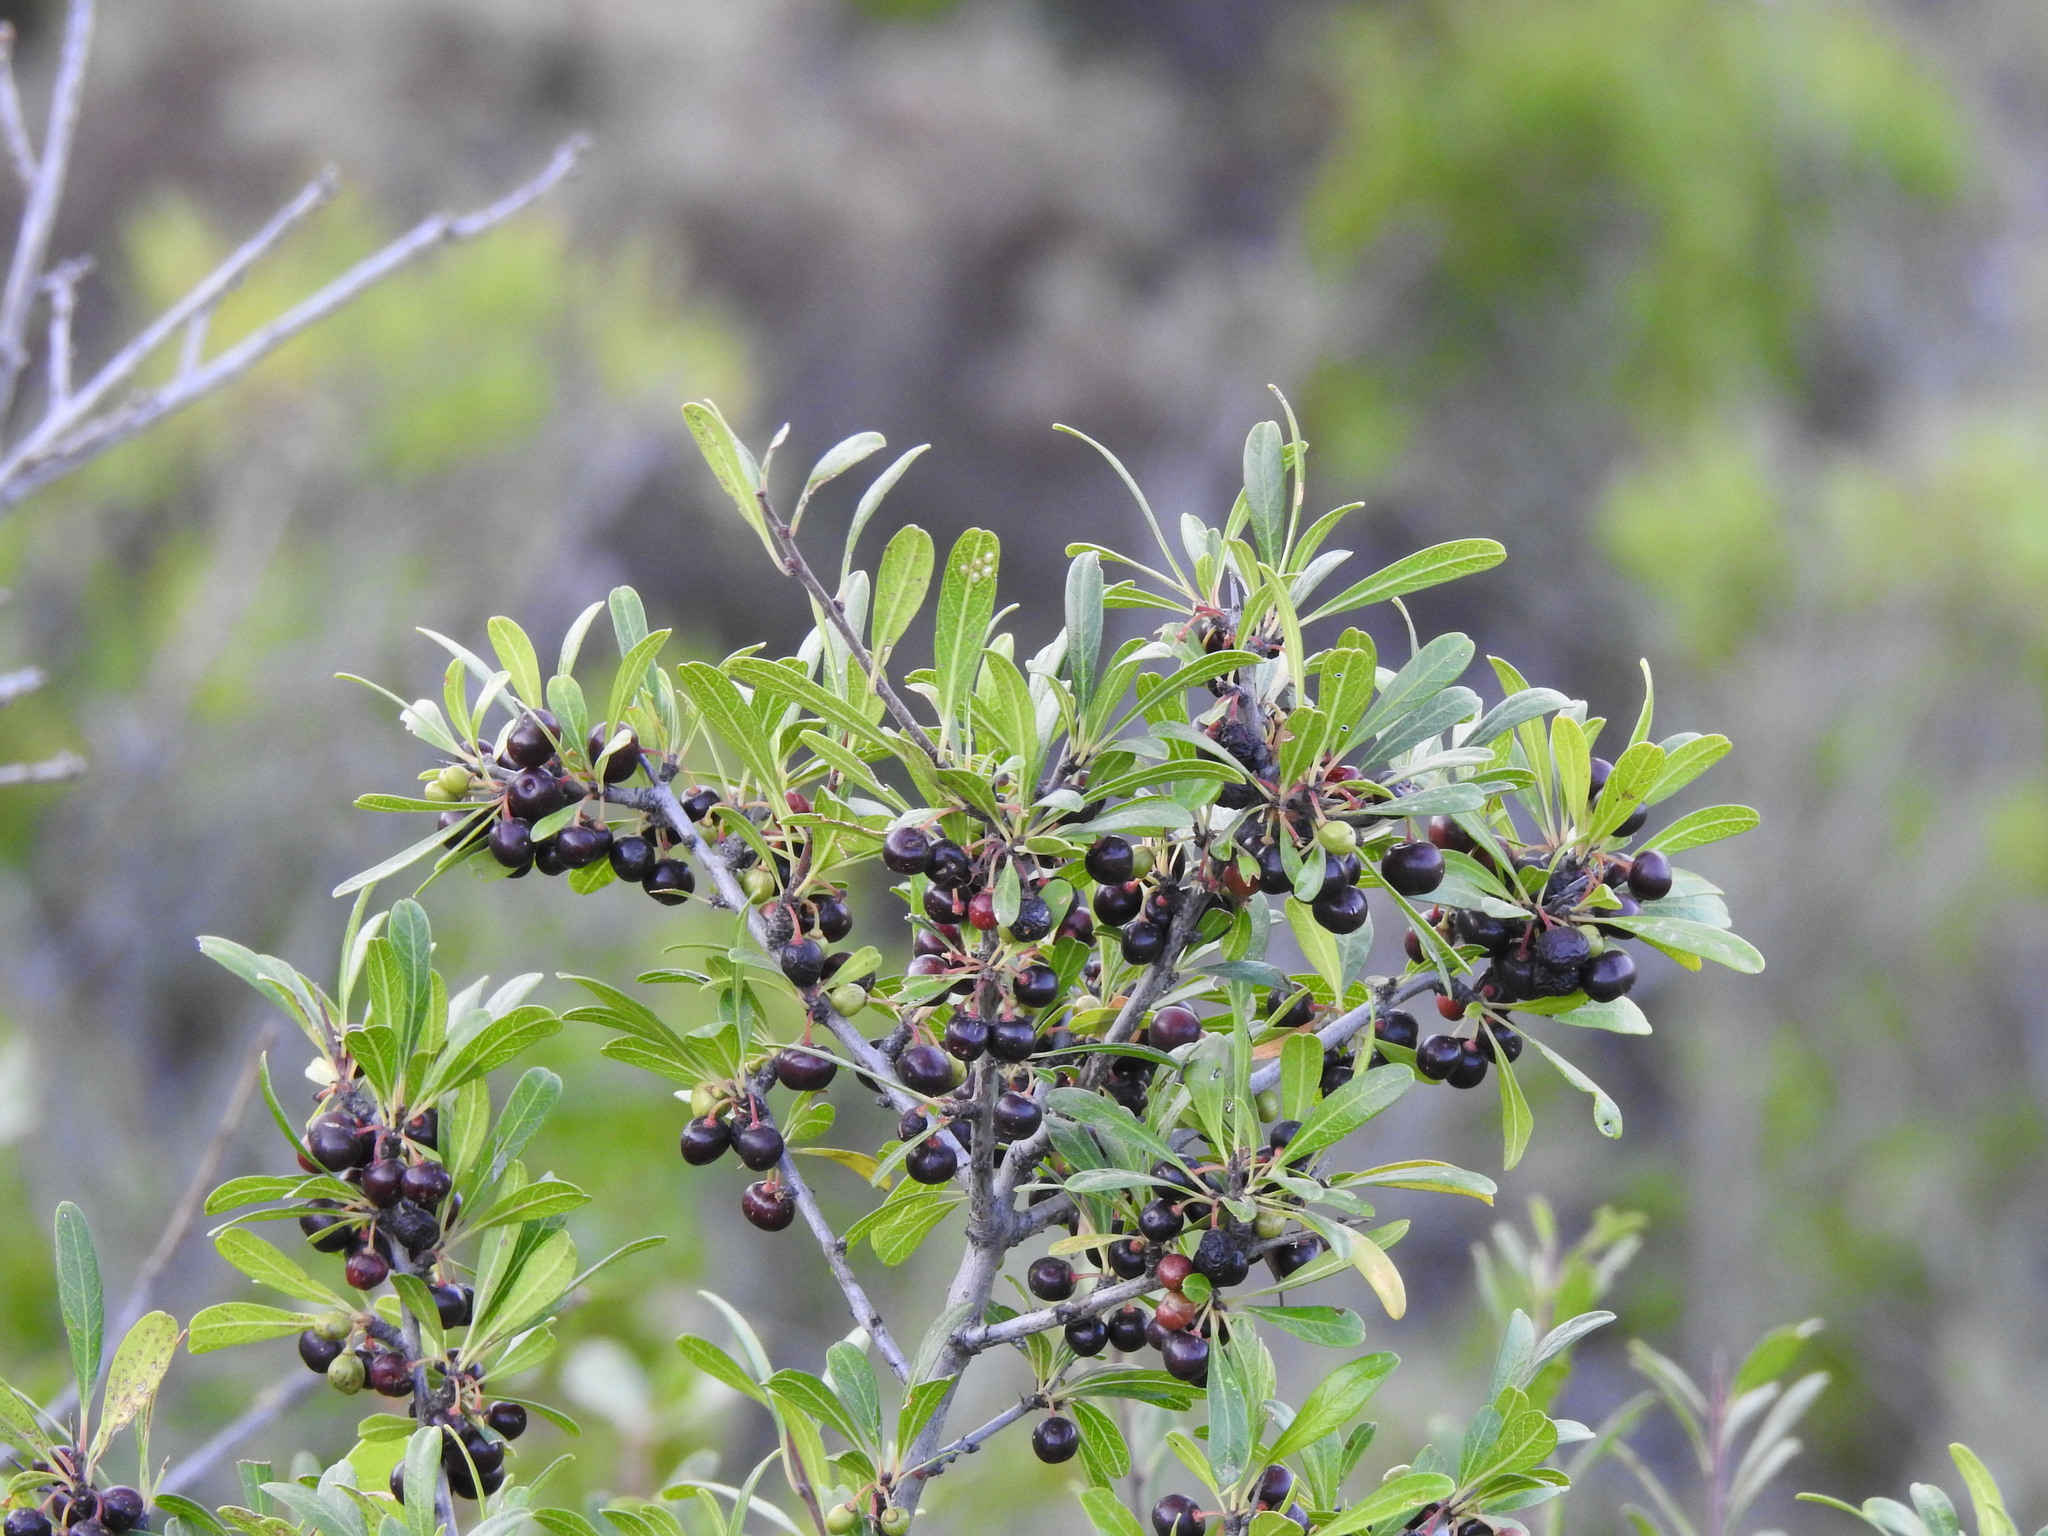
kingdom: Plantae
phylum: Tracheophyta
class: Magnoliopsida
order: Rosales
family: Rhamnaceae
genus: Rhamnus
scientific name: Rhamnus oleoides
